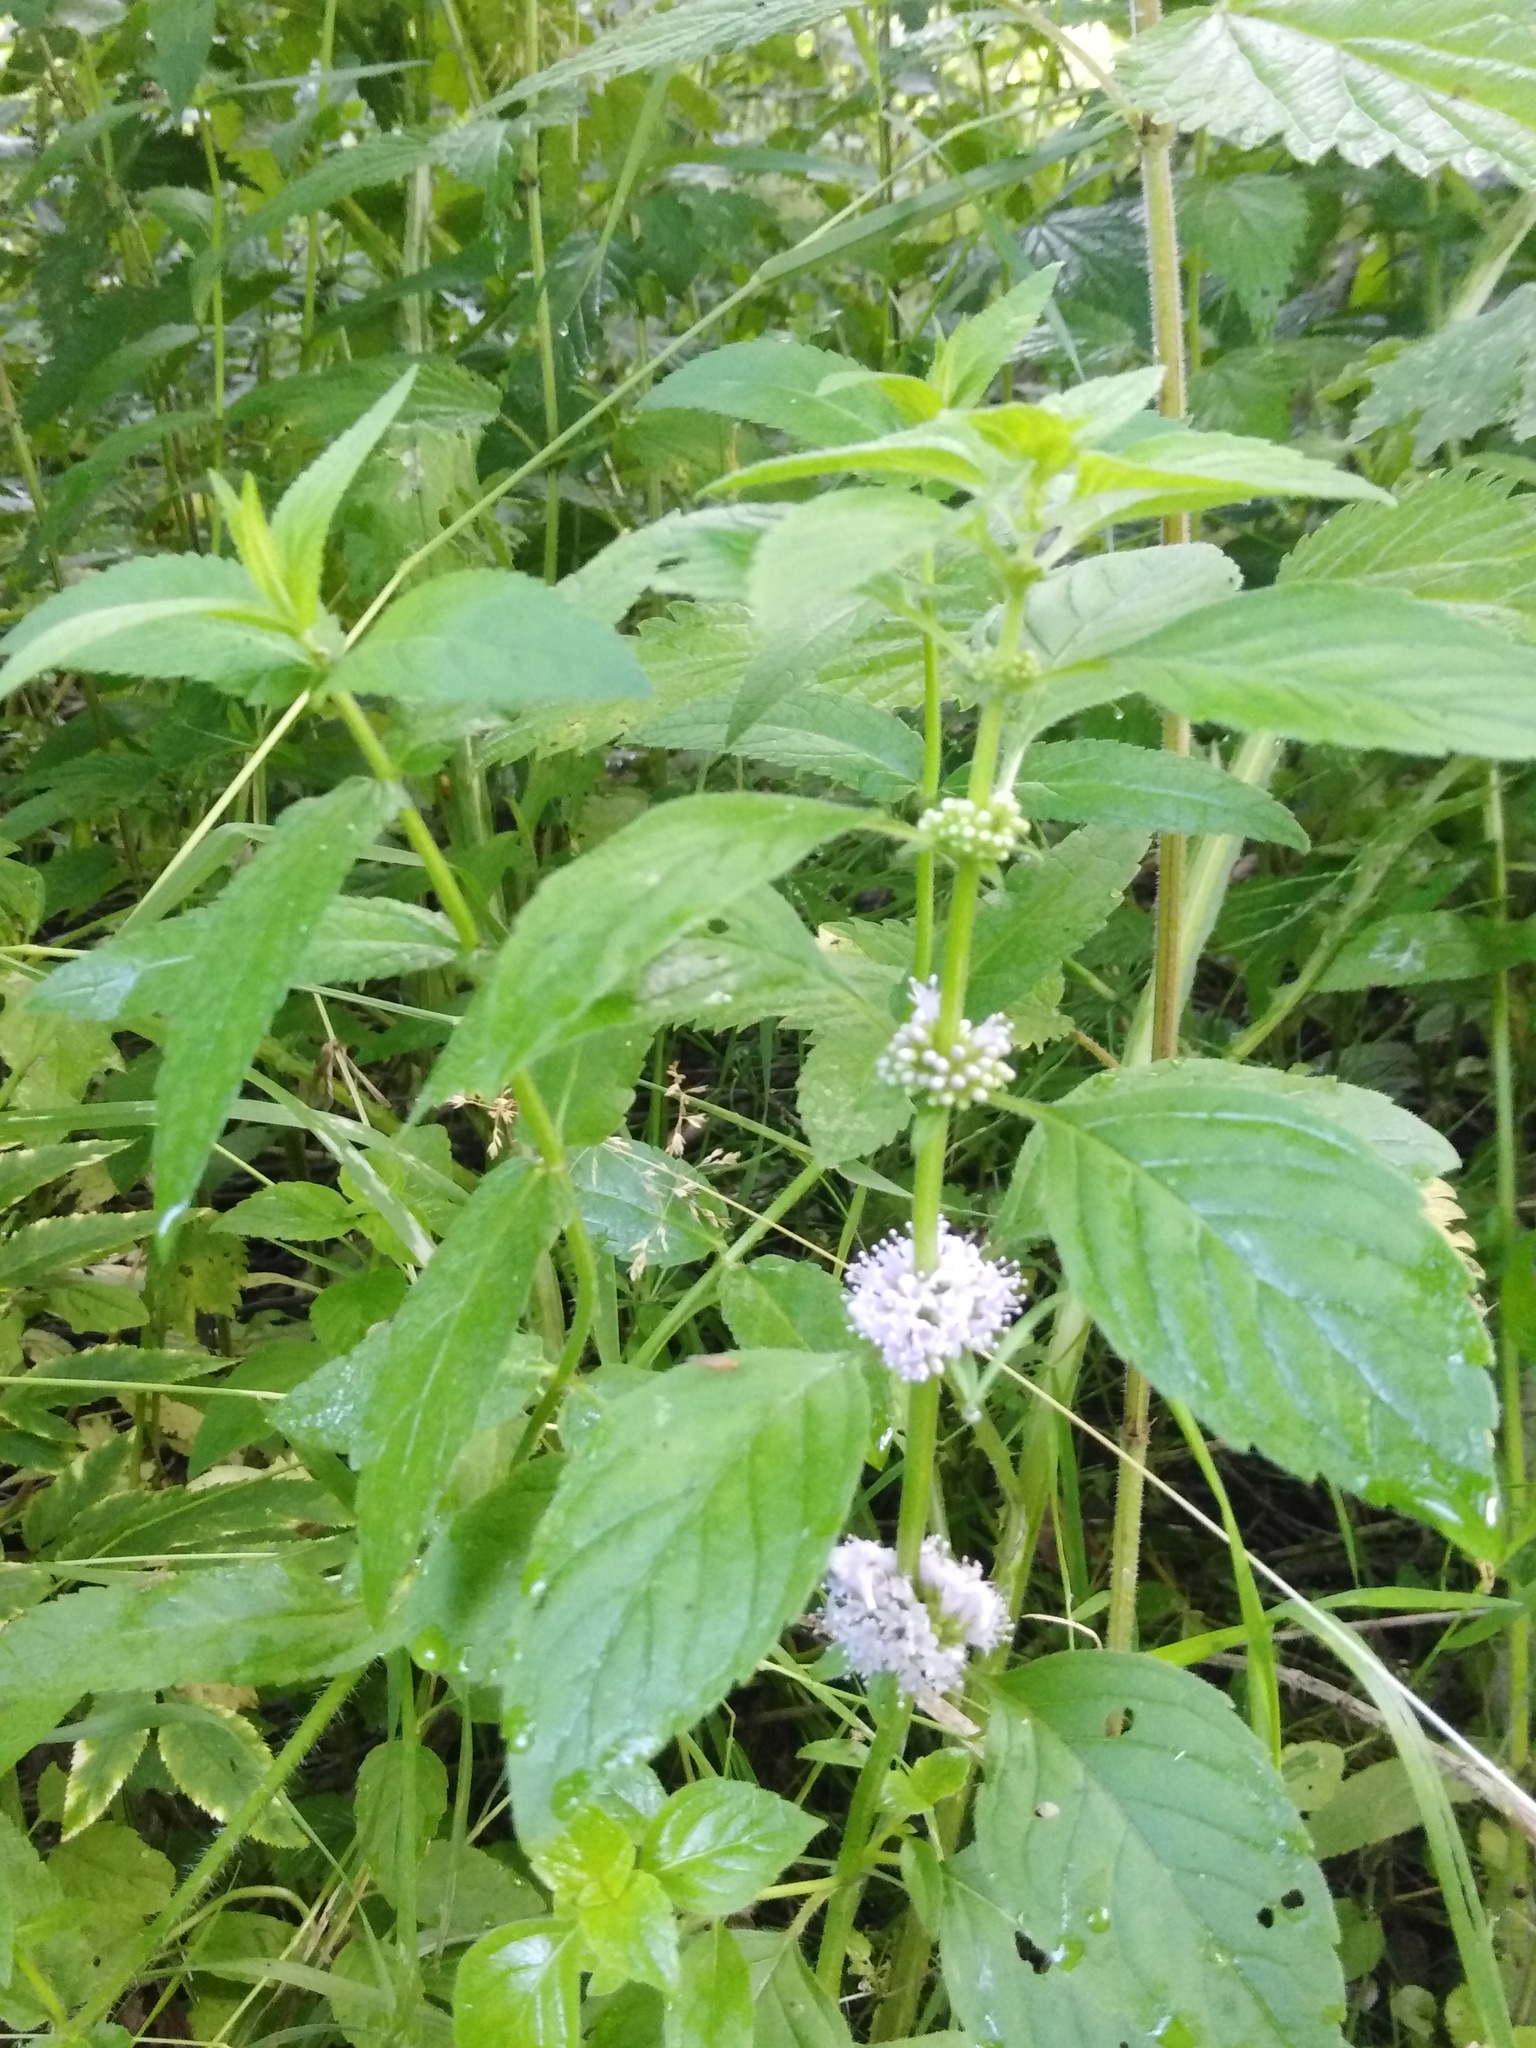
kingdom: Plantae
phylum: Tracheophyta
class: Magnoliopsida
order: Lamiales
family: Lamiaceae
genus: Mentha
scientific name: Mentha arvensis
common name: Corn mint
